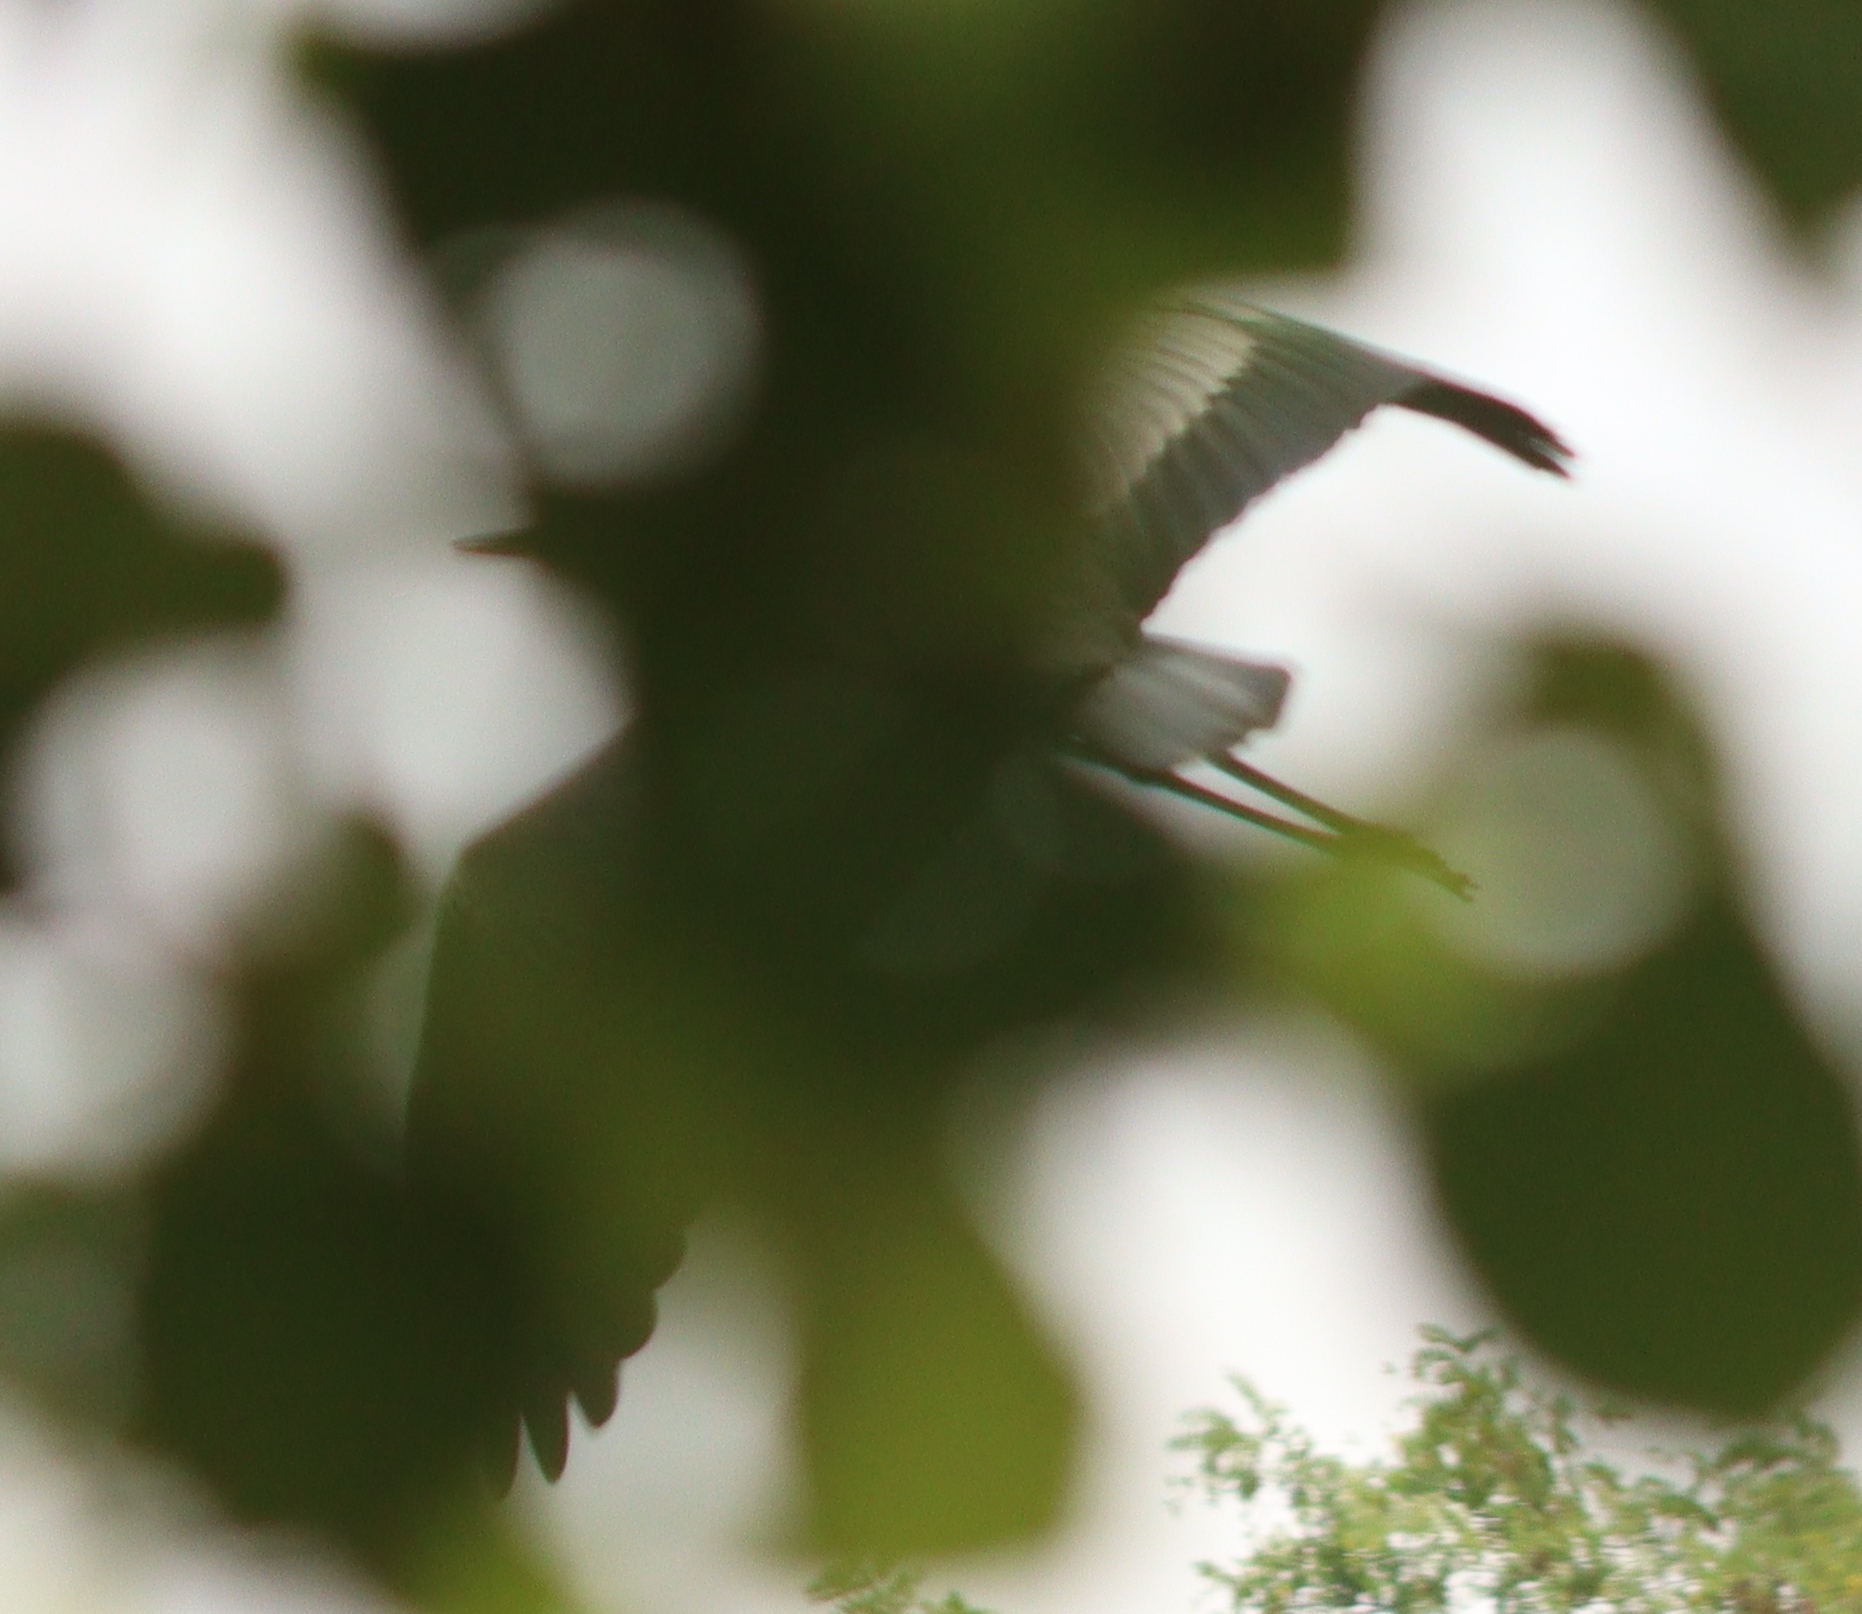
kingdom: Animalia
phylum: Chordata
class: Aves
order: Pelecaniformes
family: Ardeidae
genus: Ardea
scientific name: Ardea cinerea
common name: Grey heron
